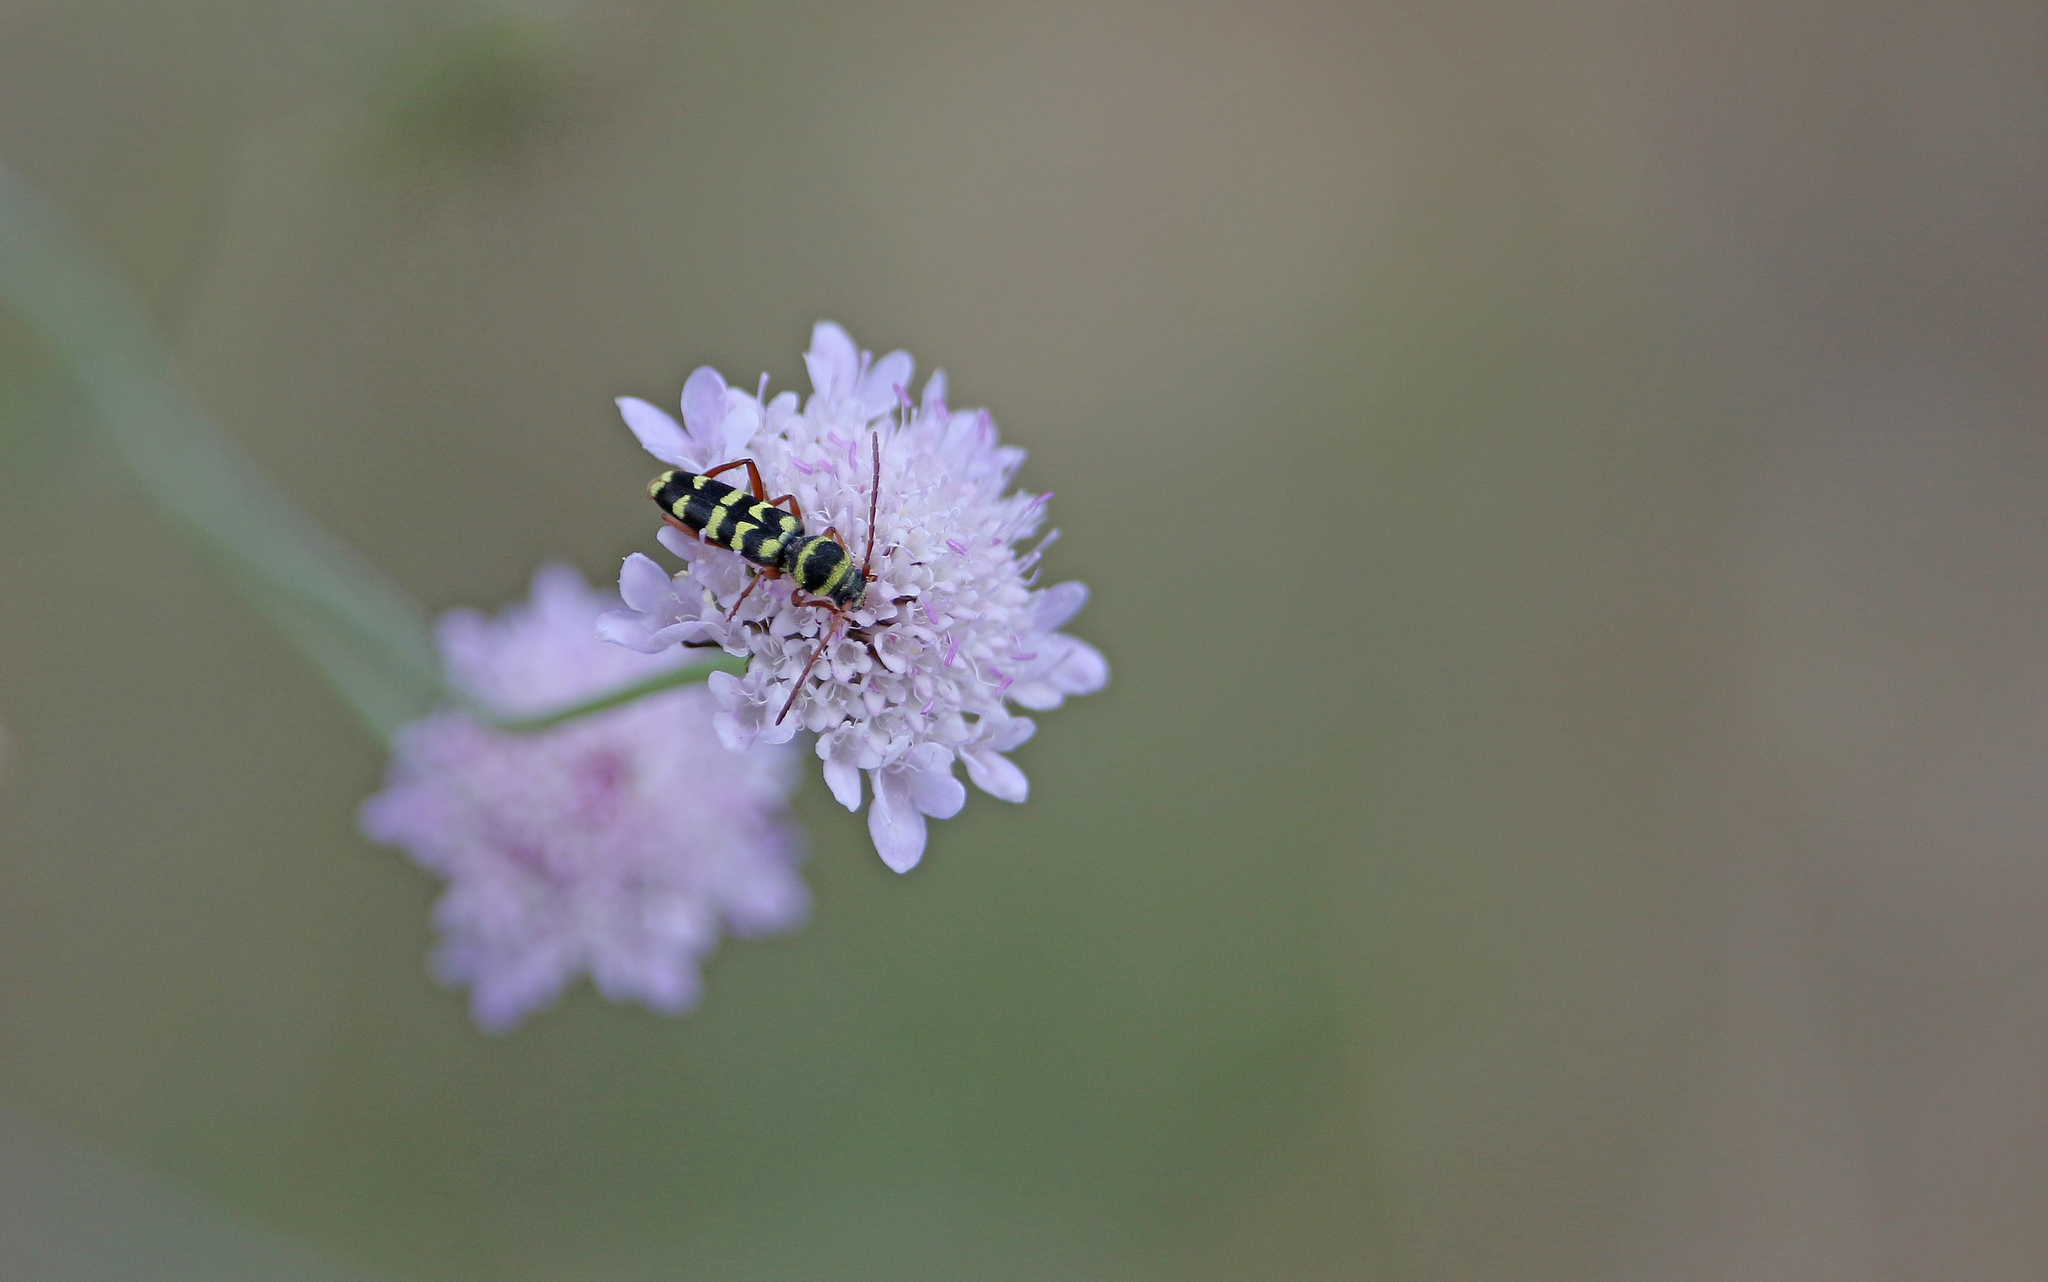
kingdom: Animalia
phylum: Arthropoda
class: Insecta
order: Coleoptera
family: Cerambycidae
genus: Plagionotus
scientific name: Plagionotus floralis
